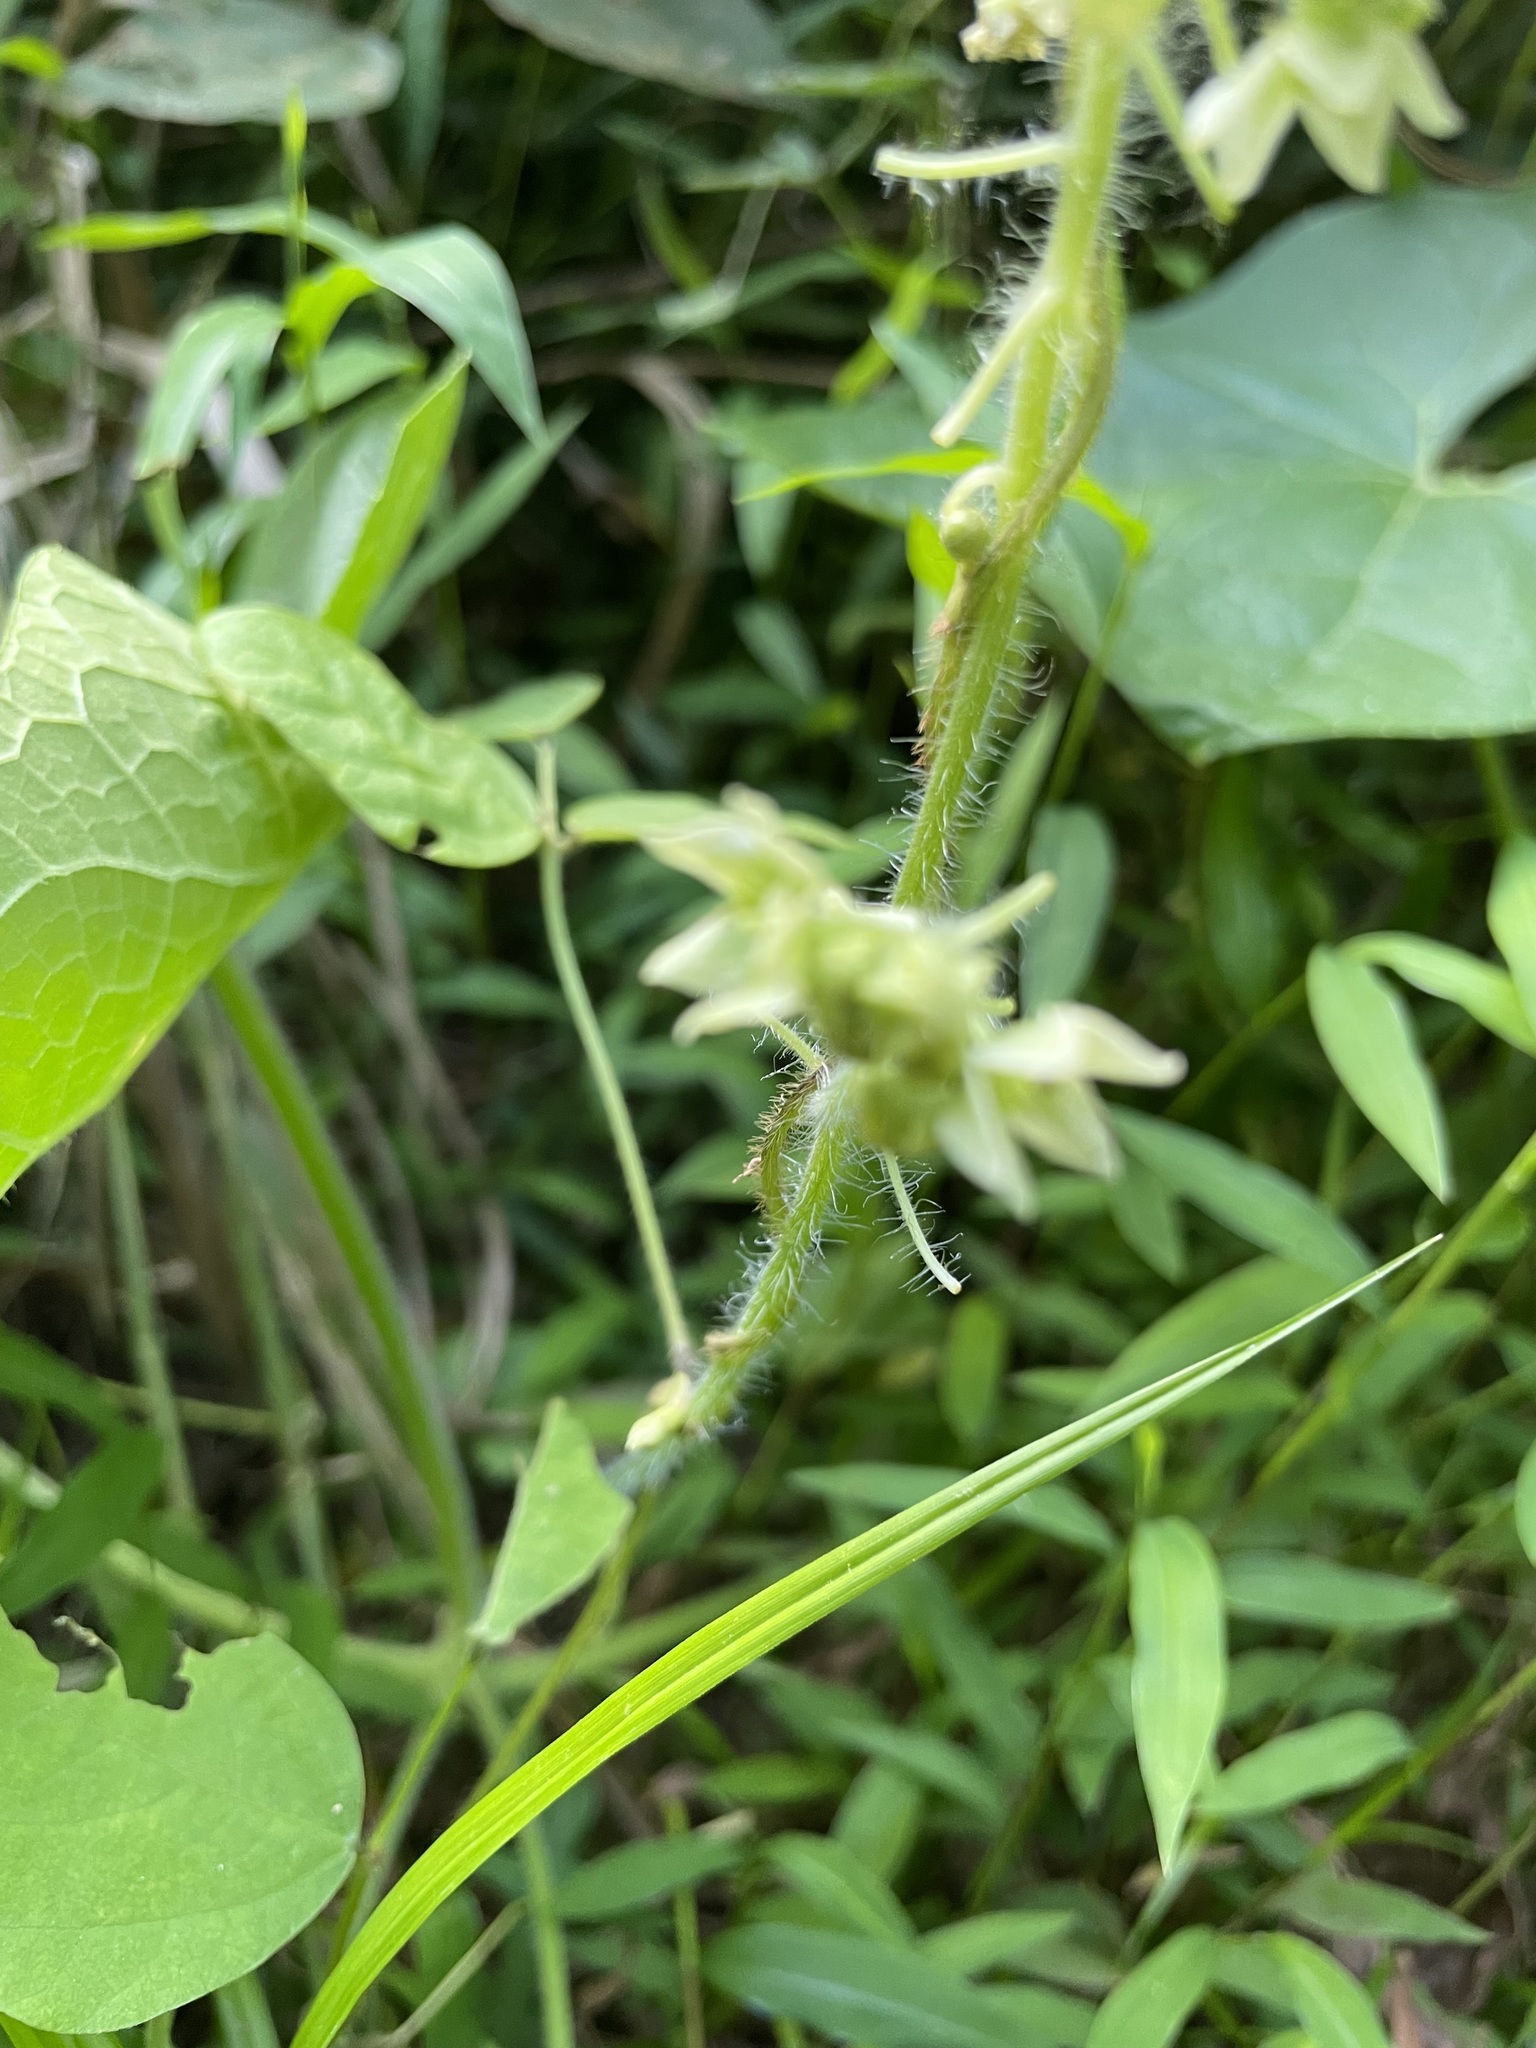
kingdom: Plantae
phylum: Tracheophyta
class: Magnoliopsida
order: Cucurbitales
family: Cucurbitaceae
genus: Sicyos
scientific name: Sicyos angulatus
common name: Angled burr cucumber
